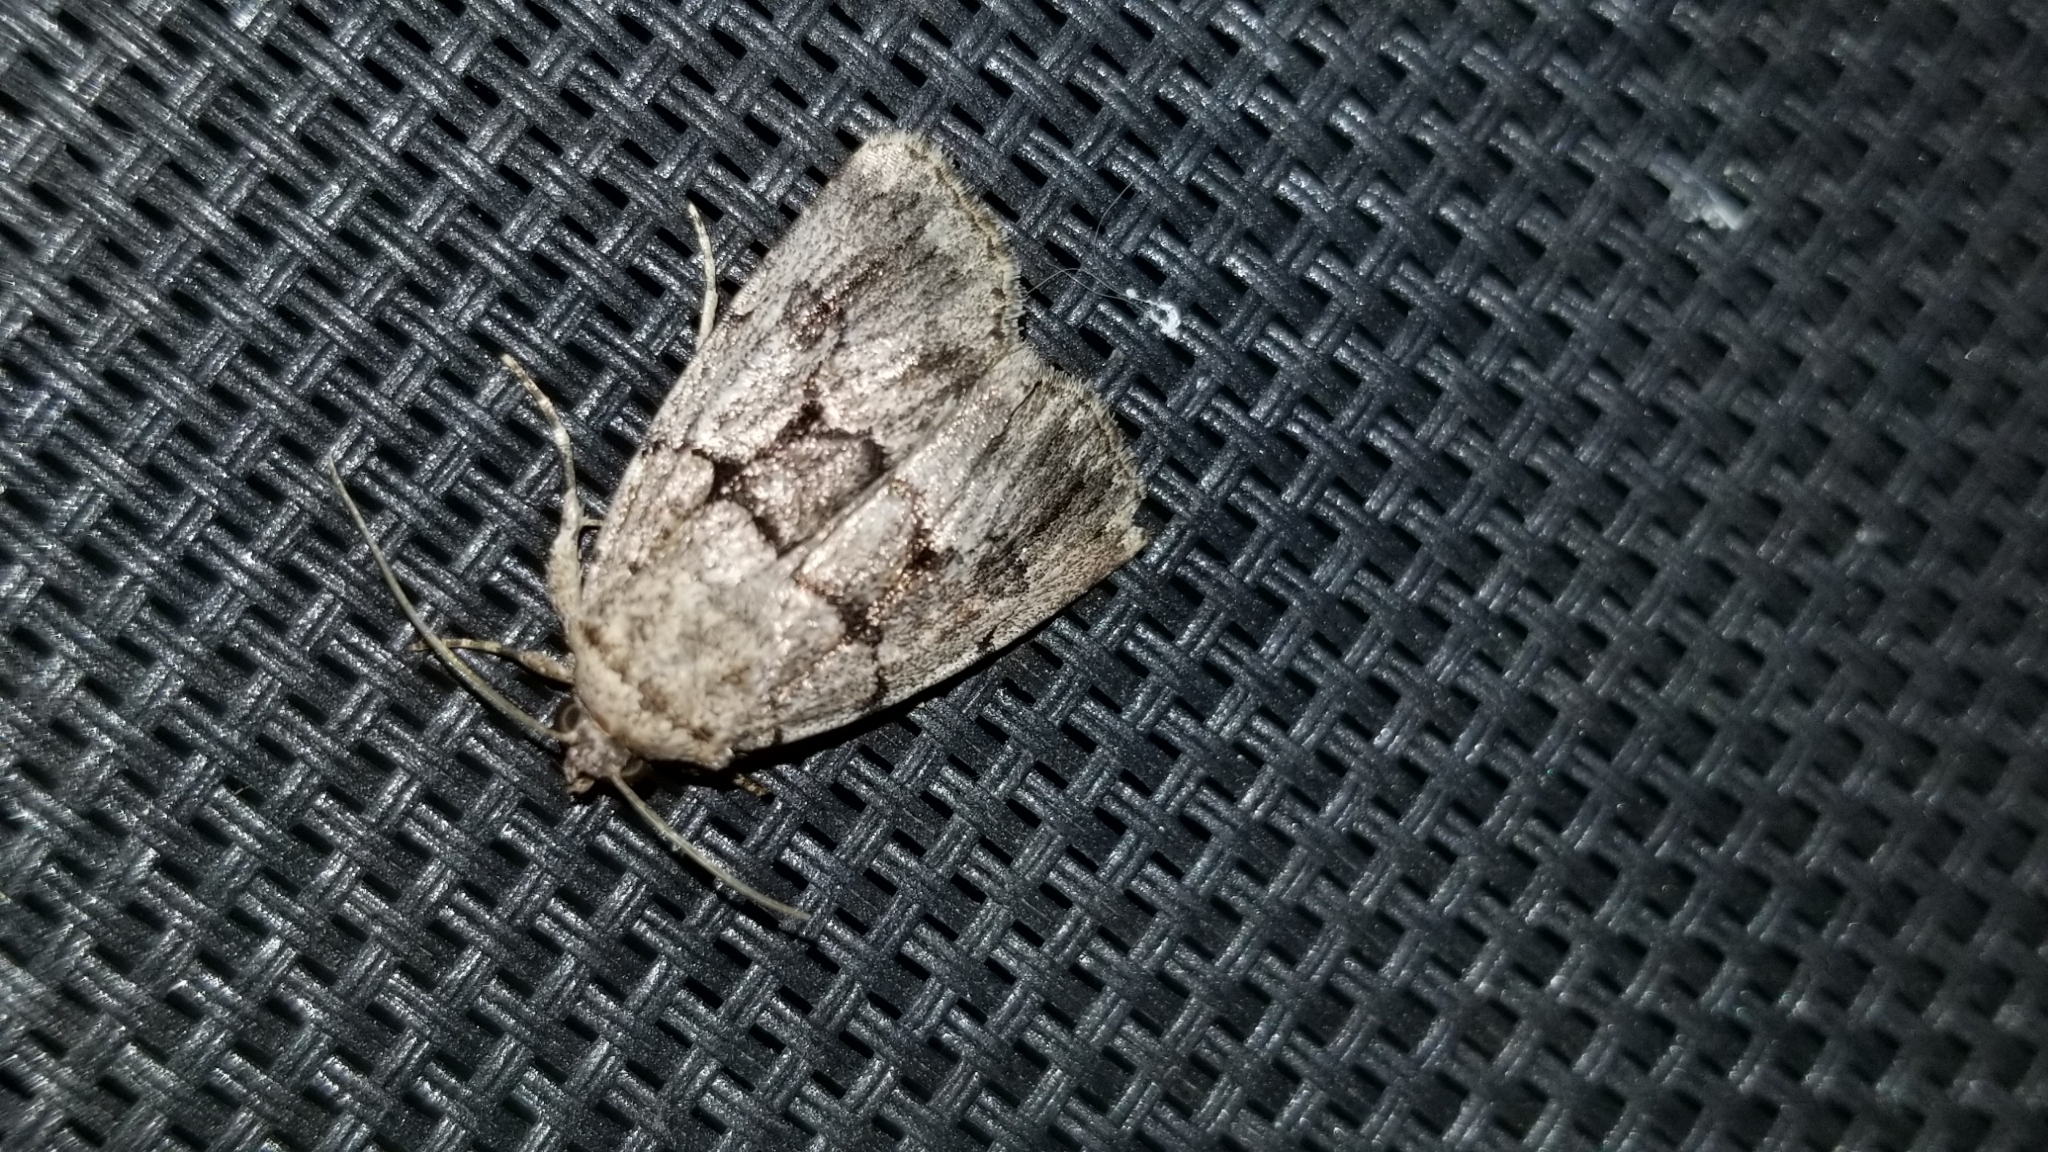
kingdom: Animalia
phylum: Arthropoda
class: Insecta
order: Lepidoptera
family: Noctuidae
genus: Sympistis
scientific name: Sympistis dinalda
